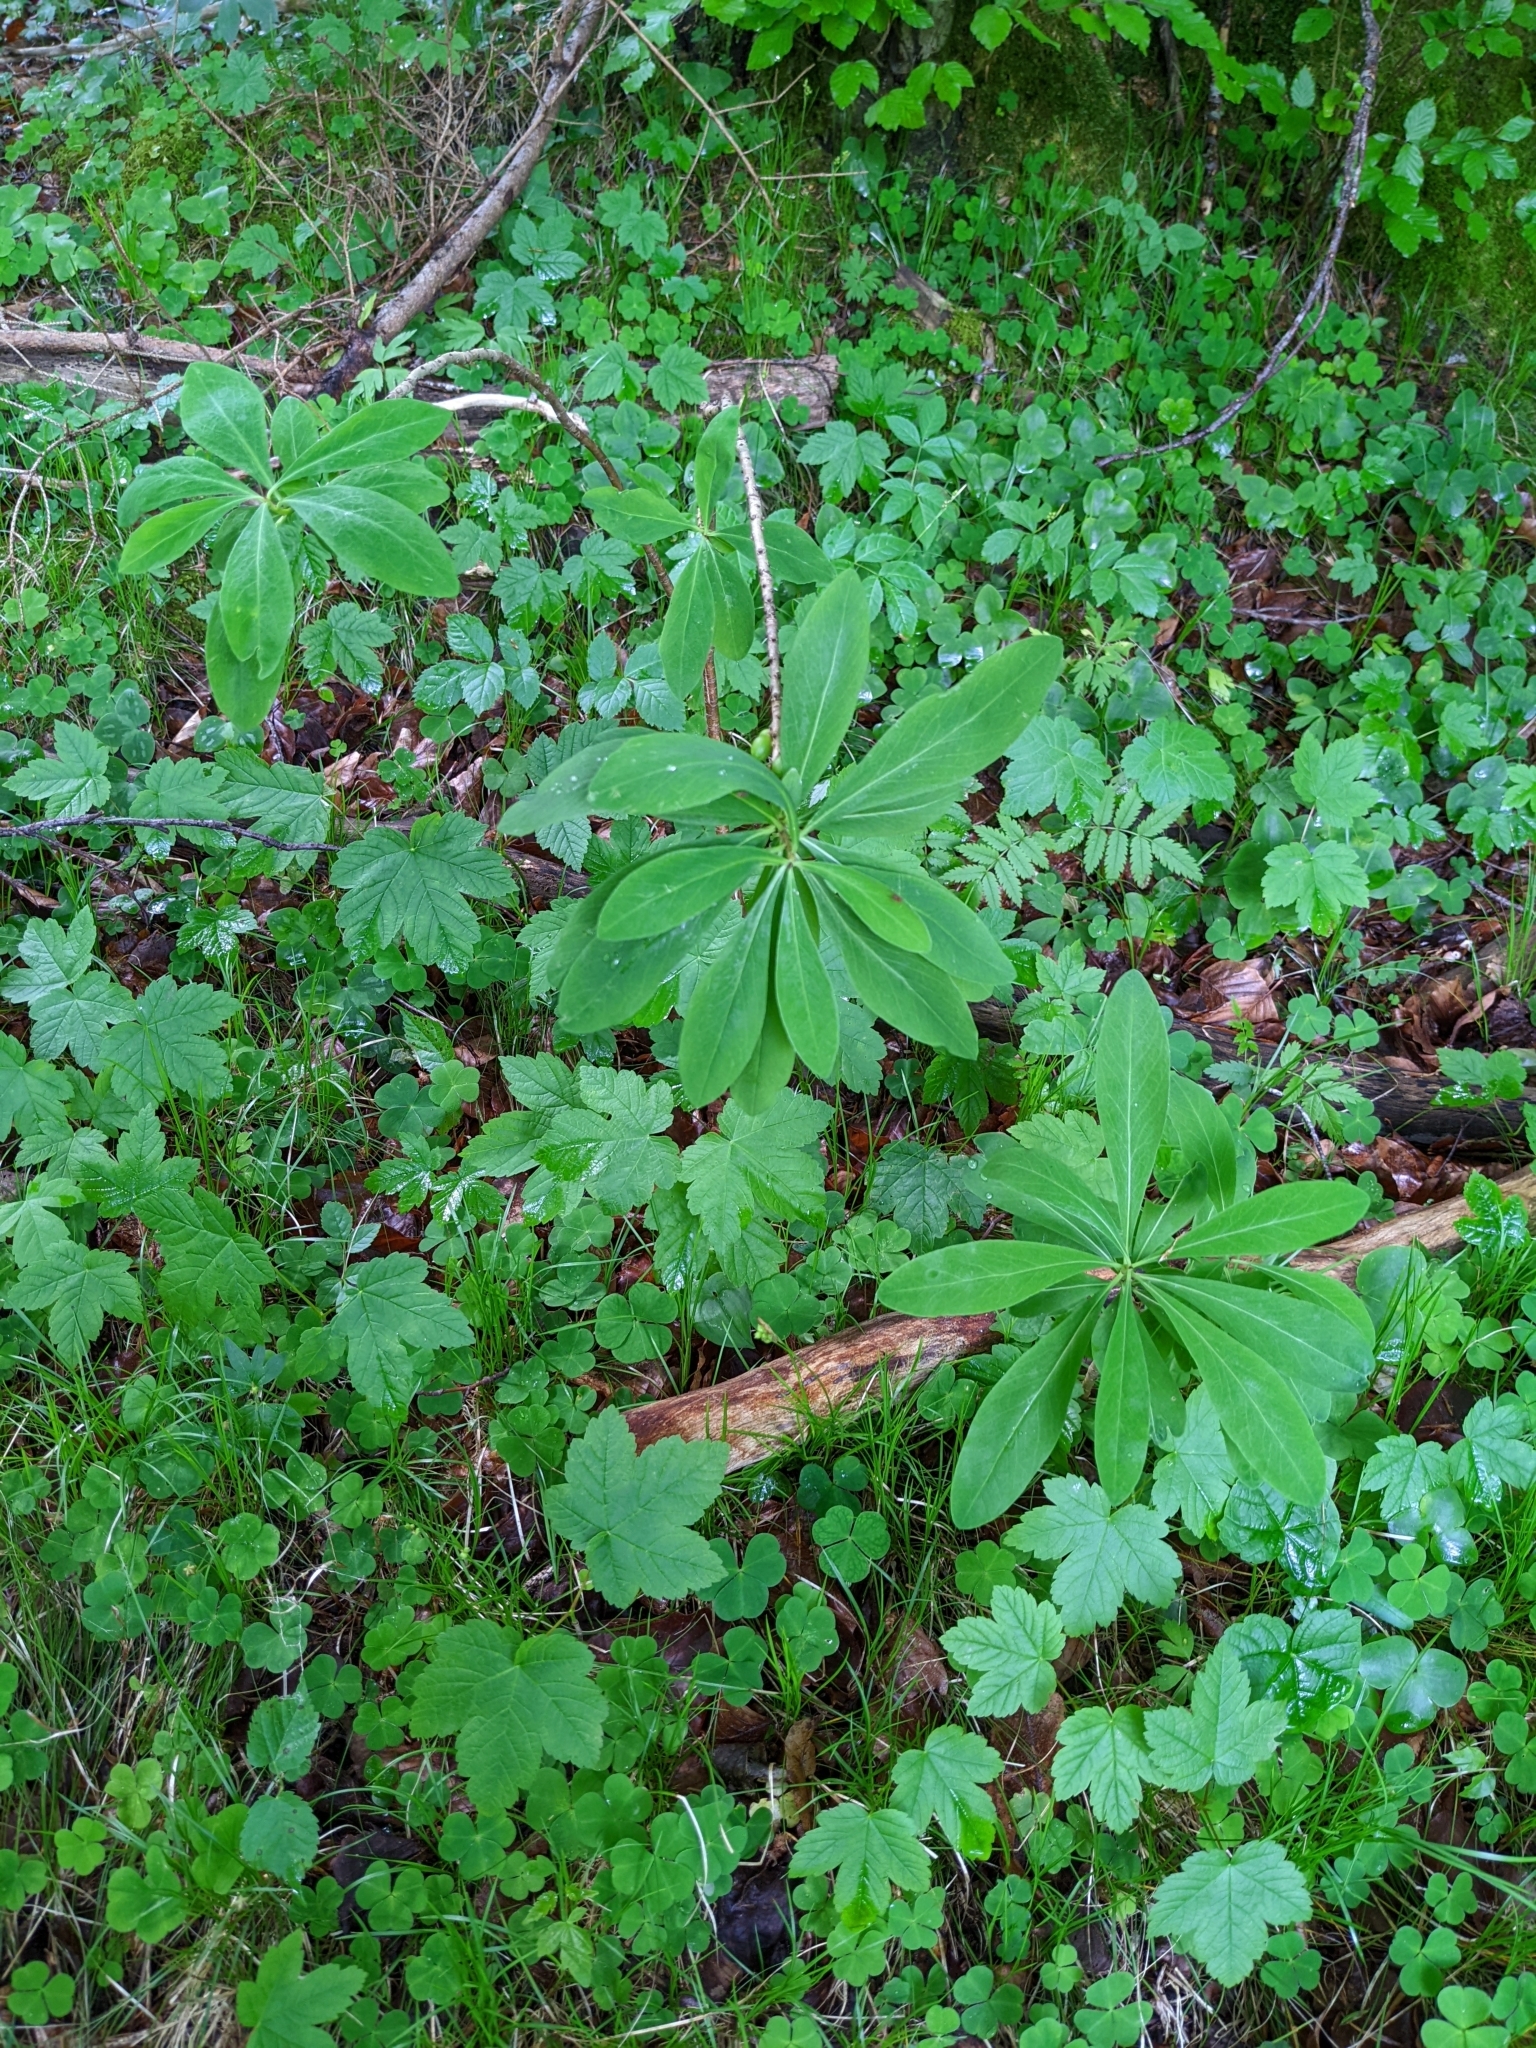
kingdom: Plantae
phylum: Tracheophyta
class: Magnoliopsida
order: Malvales
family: Thymelaeaceae
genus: Daphne
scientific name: Daphne mezereum
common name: Mezereon
